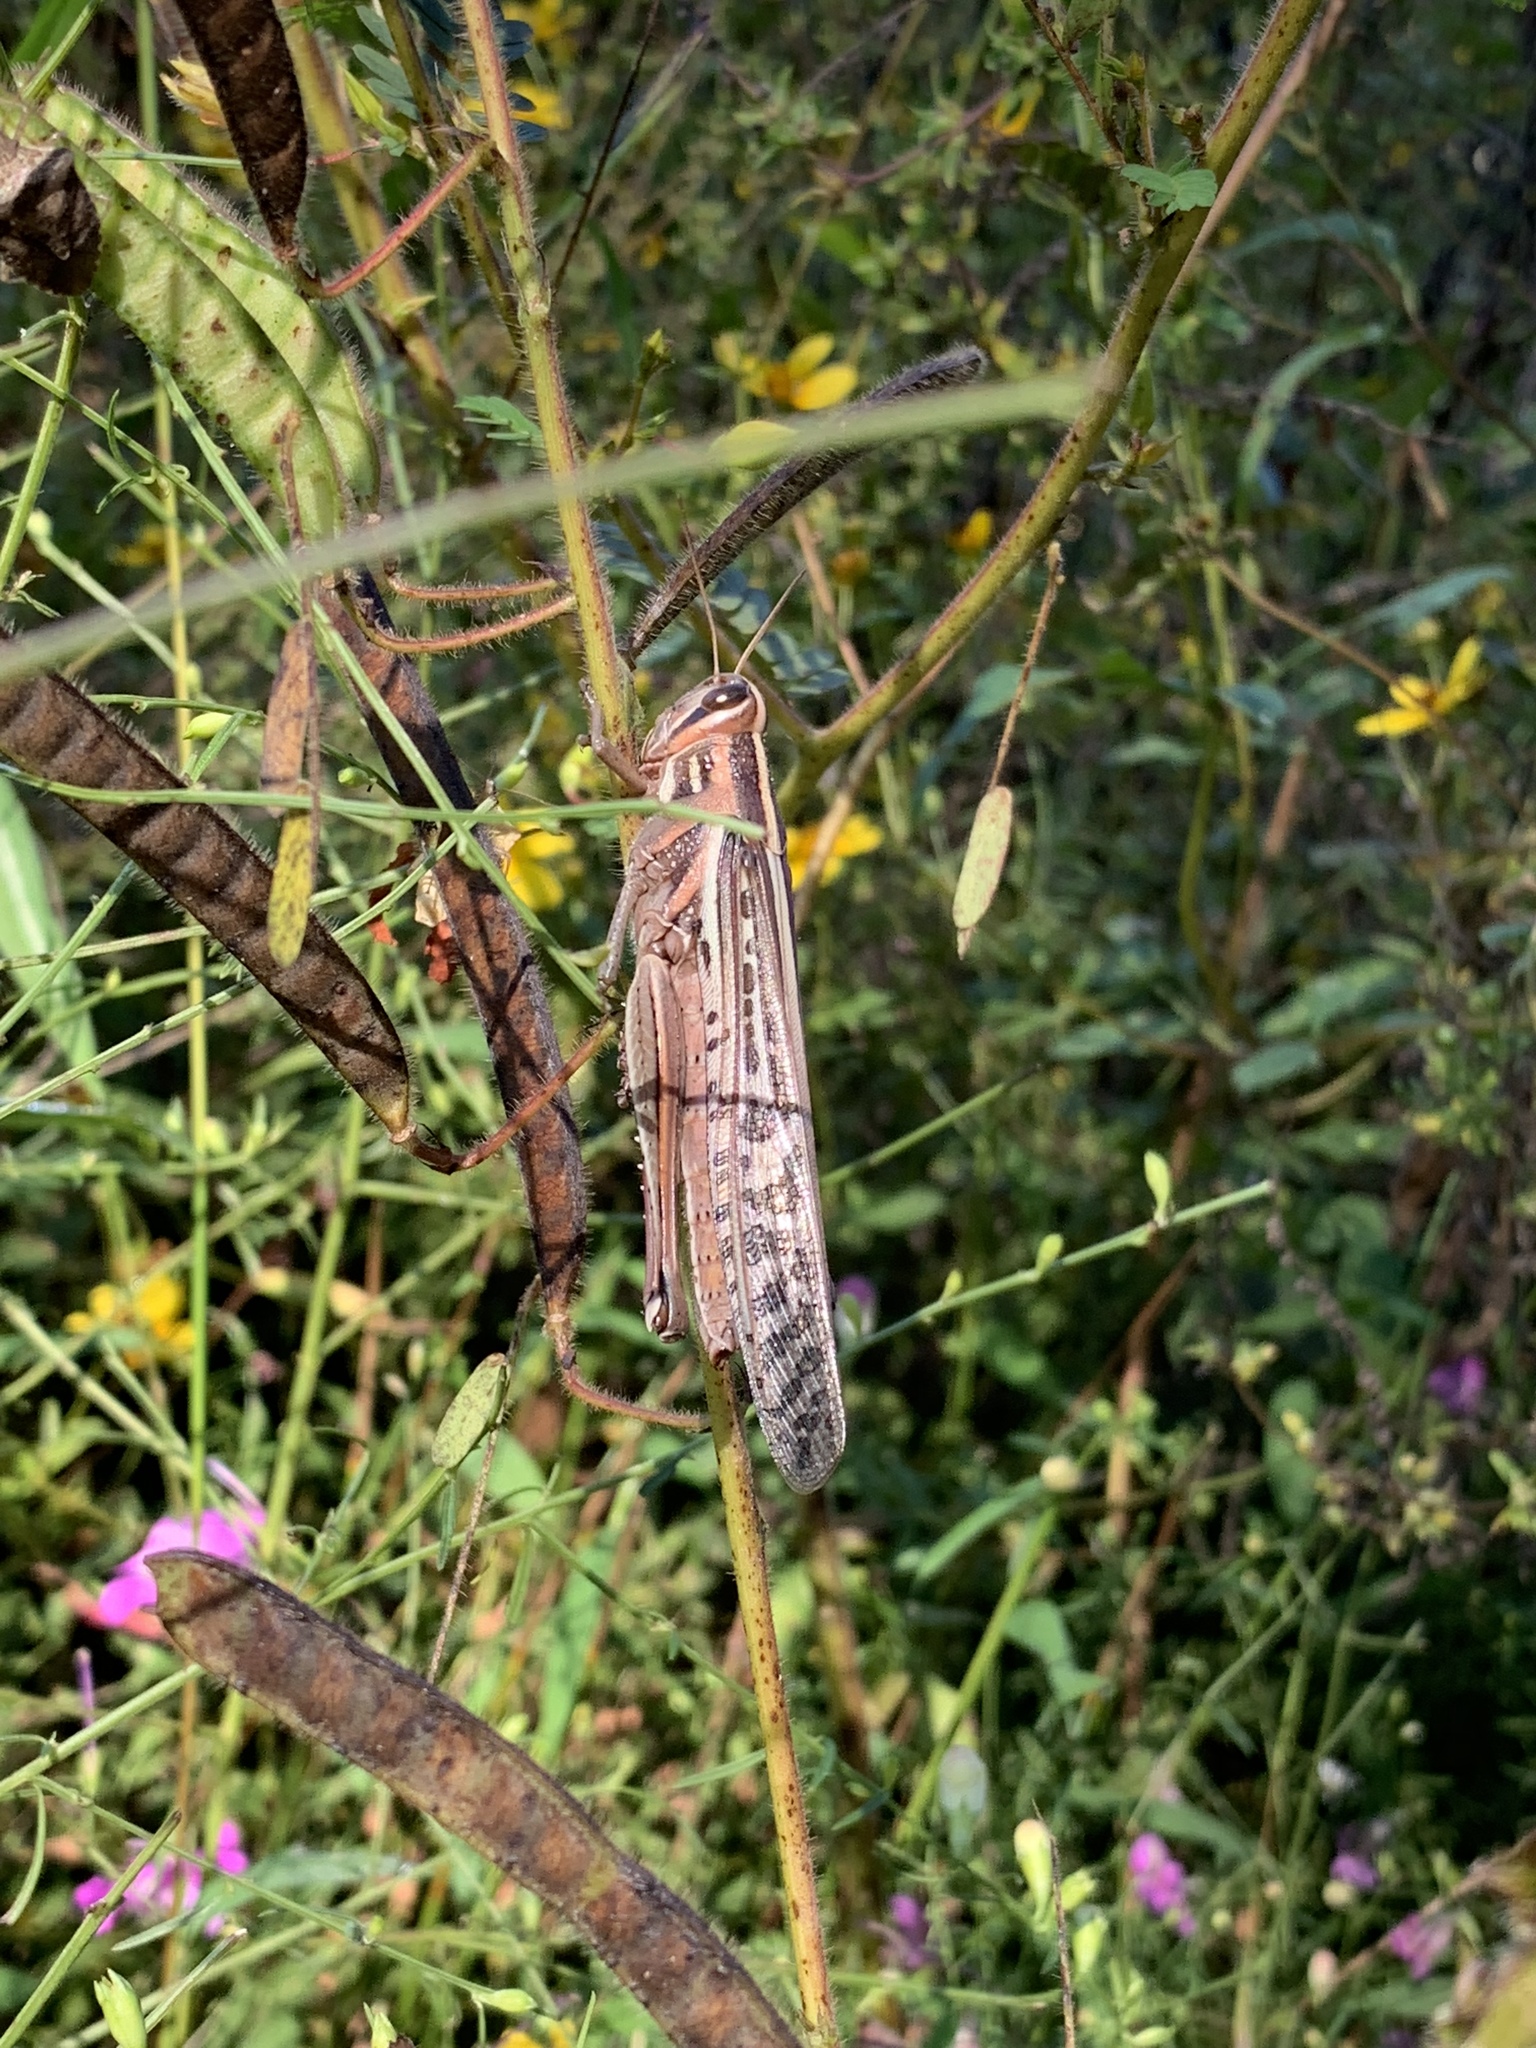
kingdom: Animalia
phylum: Arthropoda
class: Insecta
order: Orthoptera
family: Acrididae
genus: Schistocerca
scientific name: Schistocerca americana
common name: American bird locust
